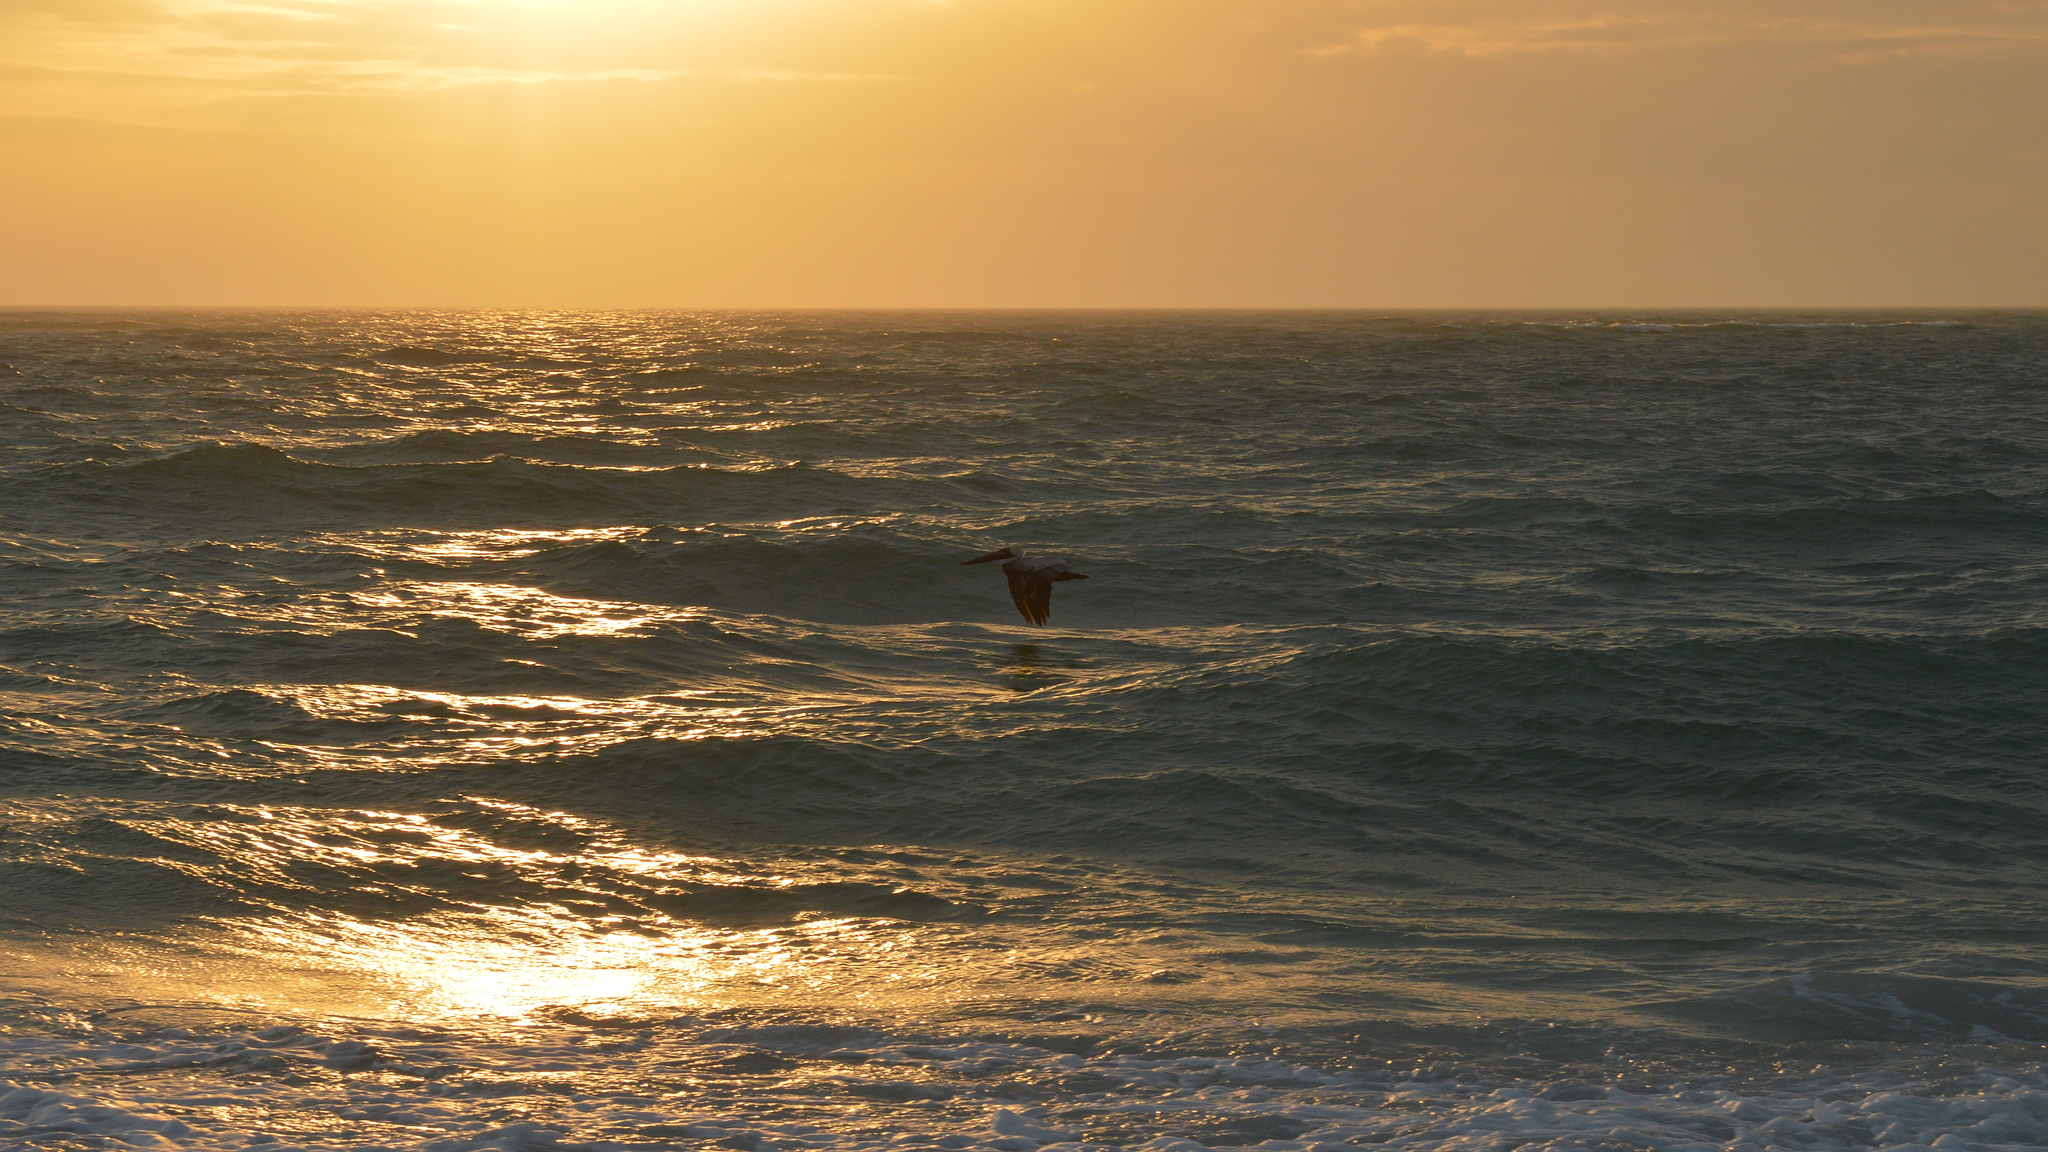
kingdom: Animalia
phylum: Chordata
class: Aves
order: Pelecaniformes
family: Pelecanidae
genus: Pelecanus
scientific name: Pelecanus occidentalis
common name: Brown pelican
